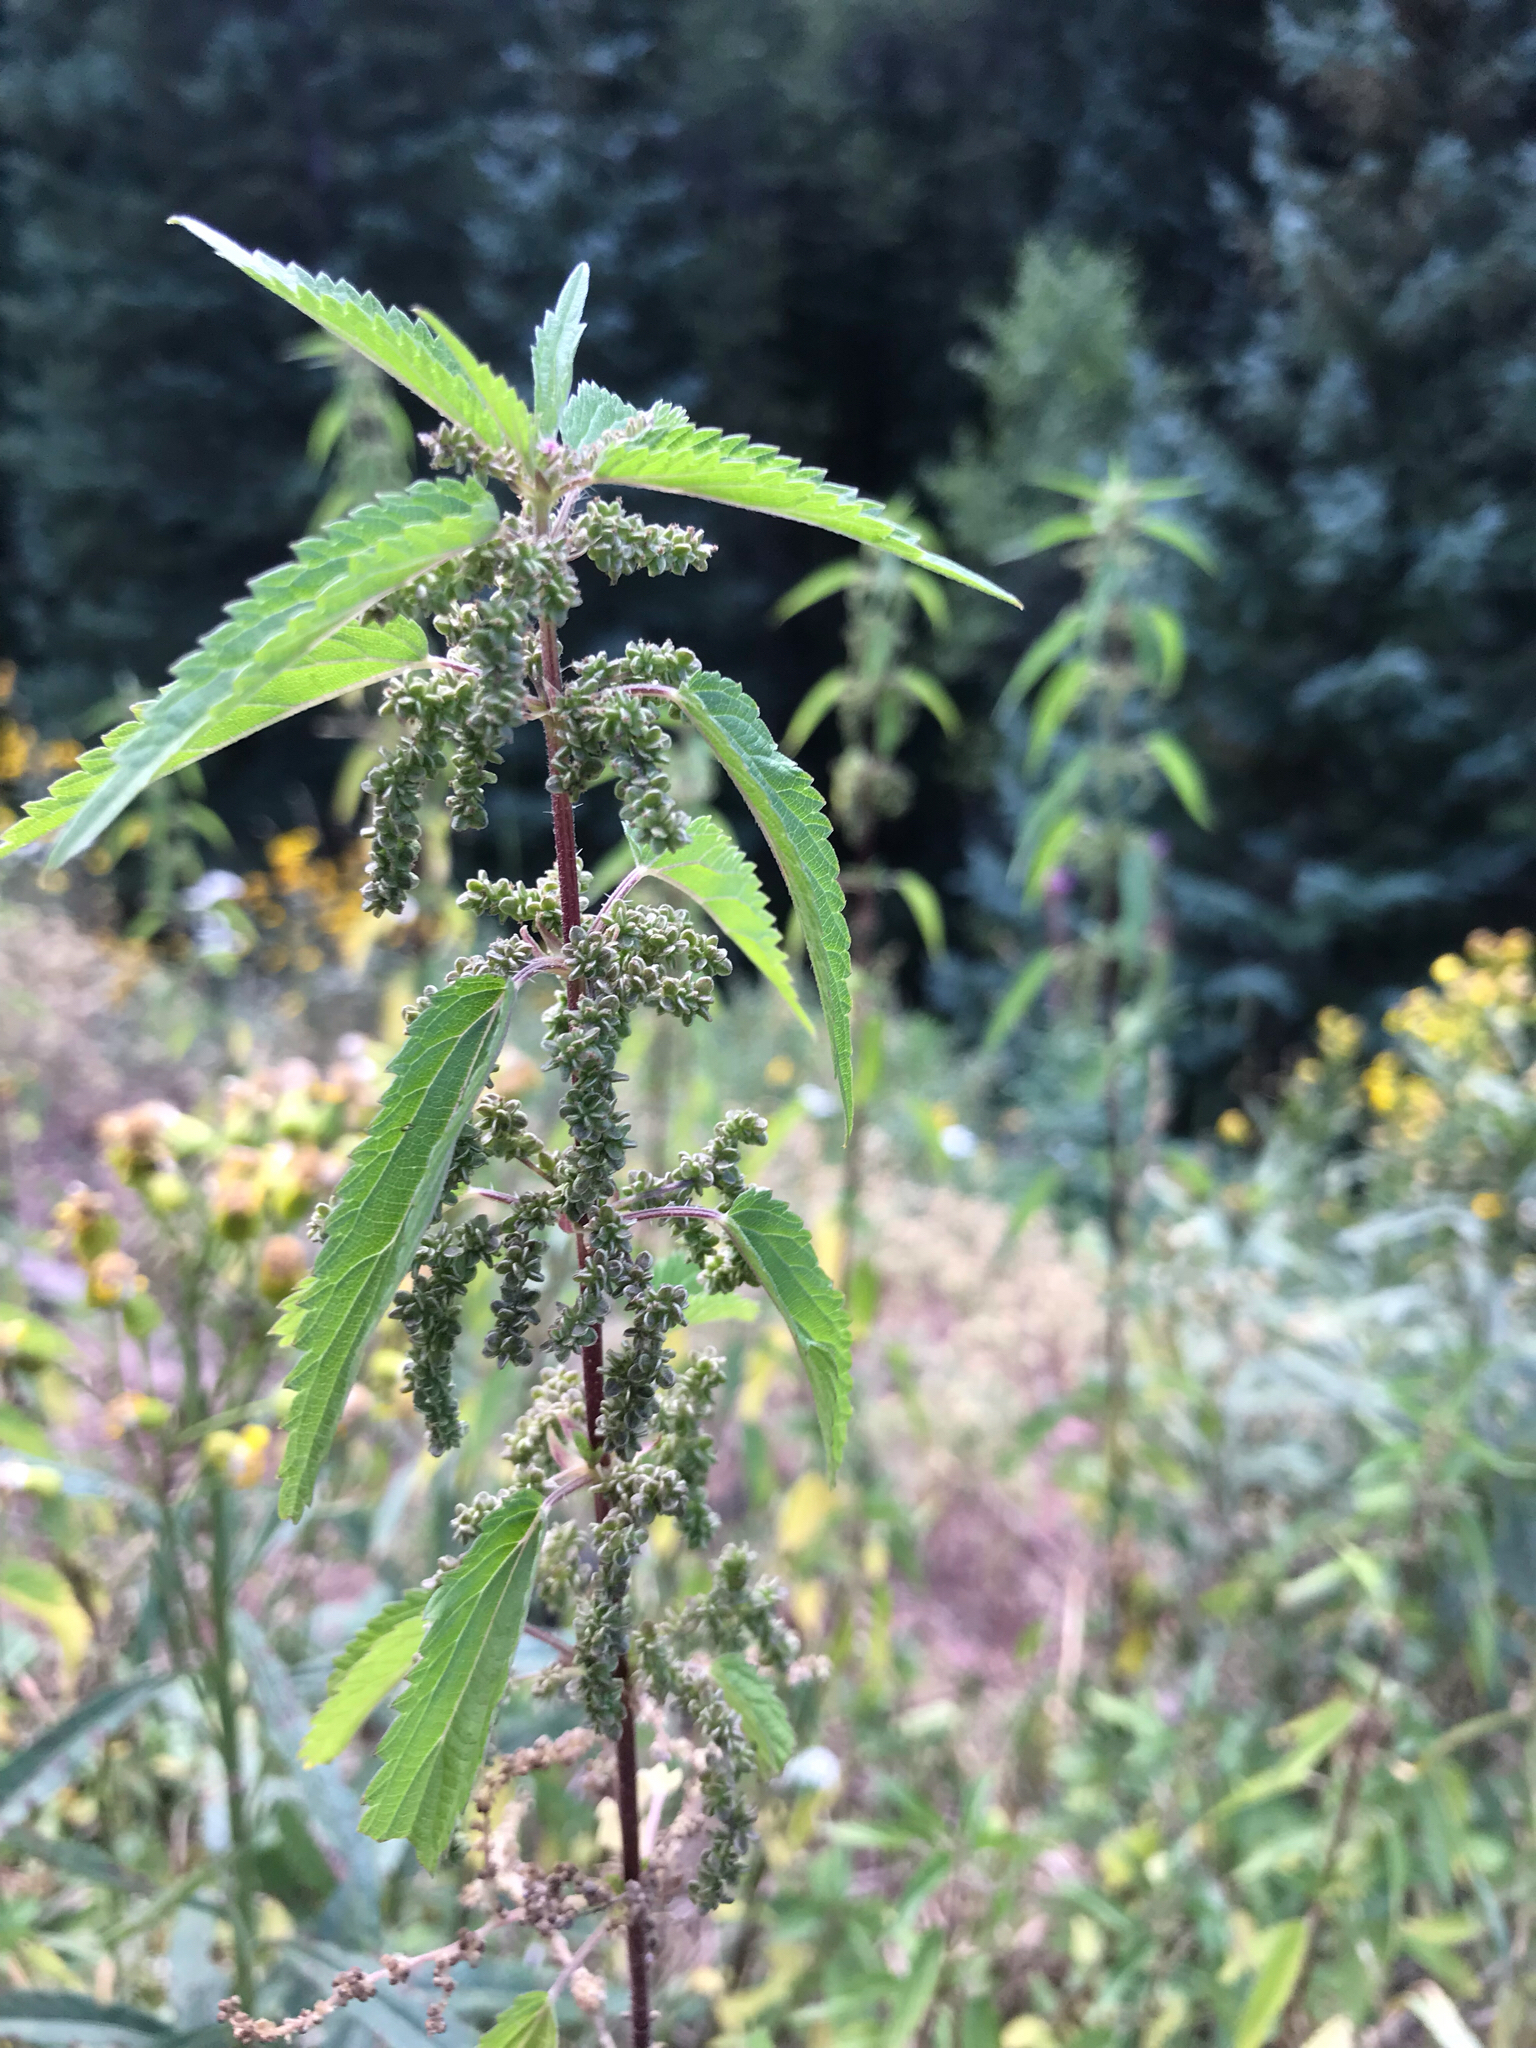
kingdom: Plantae
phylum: Tracheophyta
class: Magnoliopsida
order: Rosales
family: Urticaceae
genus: Urtica
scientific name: Urtica dioica
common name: Common nettle
